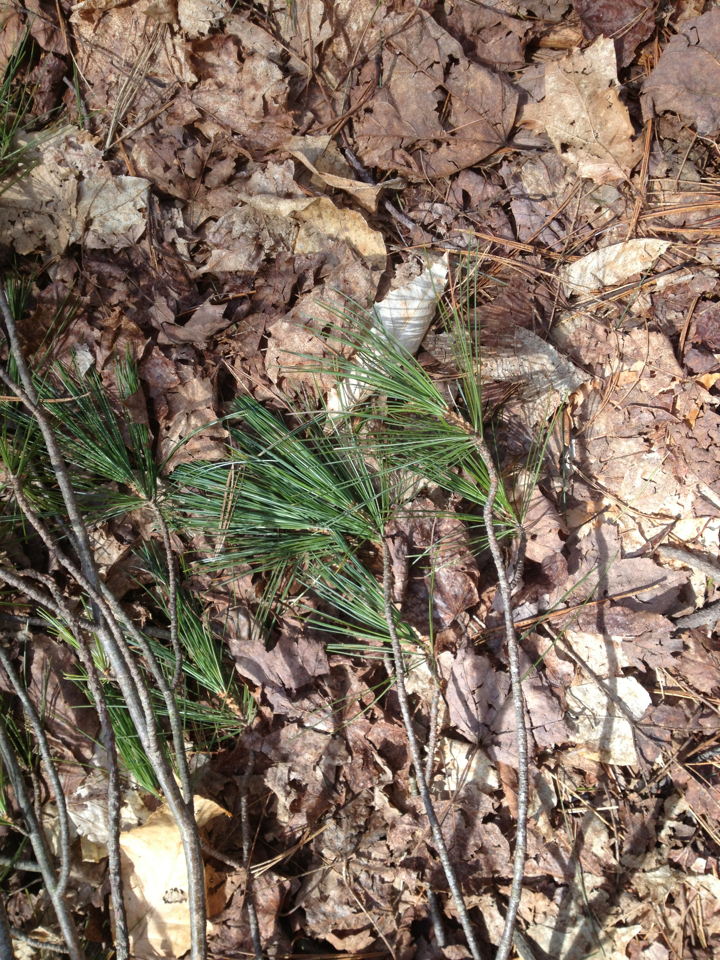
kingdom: Plantae
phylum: Tracheophyta
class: Pinopsida
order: Pinales
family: Pinaceae
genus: Pinus
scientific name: Pinus strobus
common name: Weymouth pine
